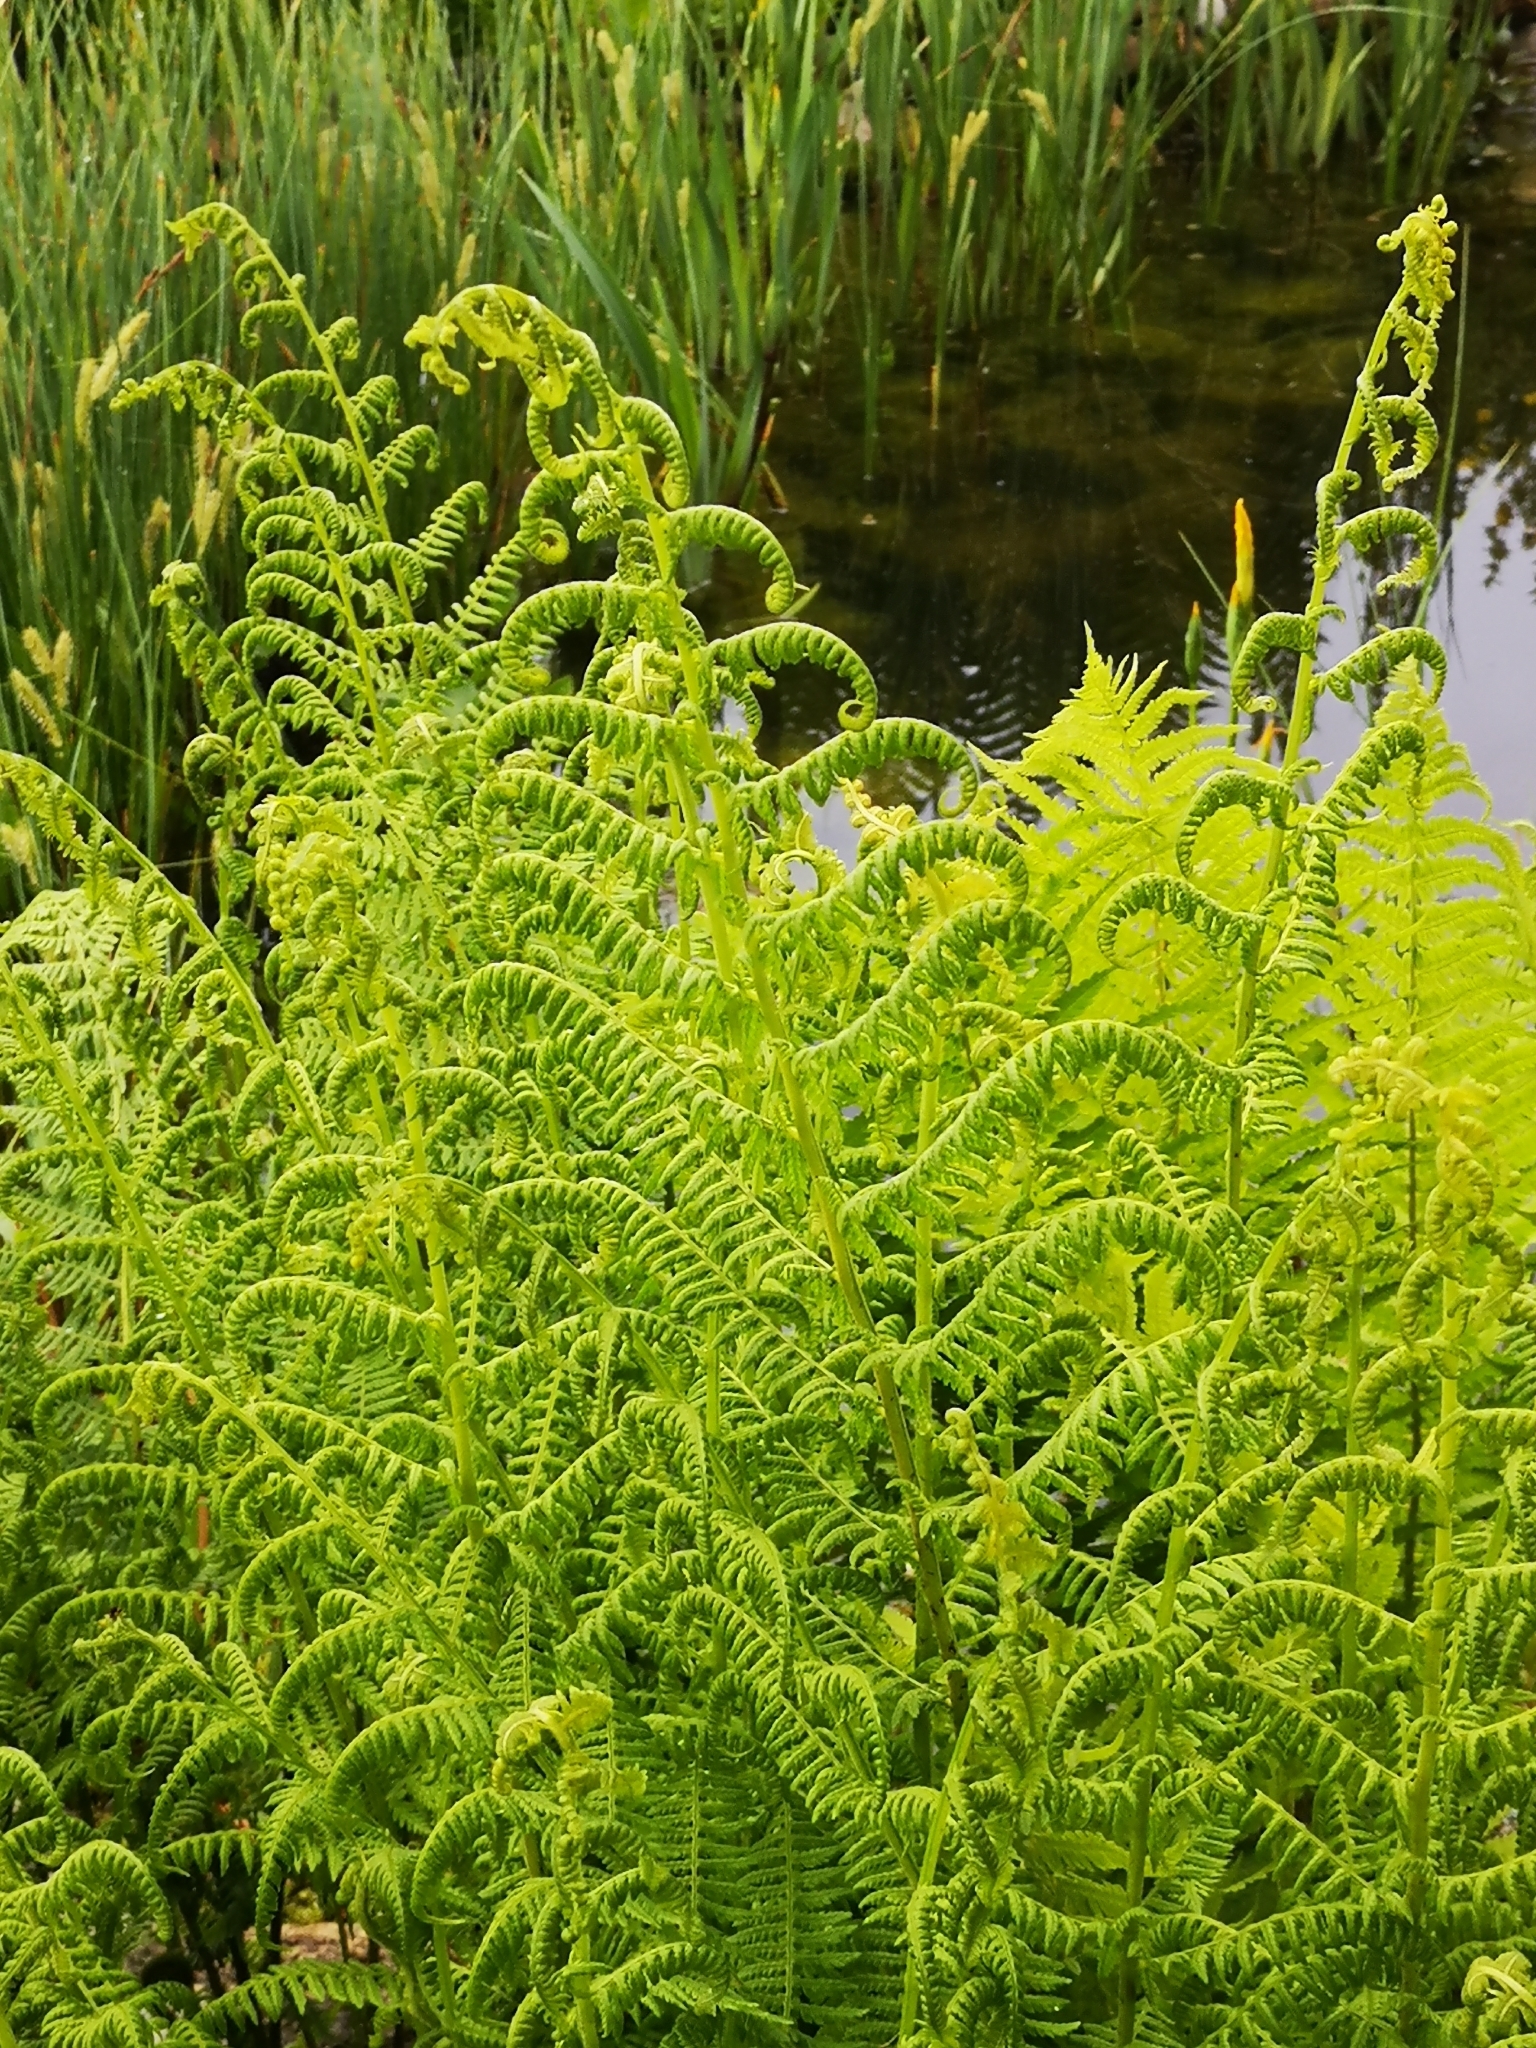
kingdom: Plantae
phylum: Tracheophyta
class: Polypodiopsida
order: Polypodiales
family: Athyriaceae
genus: Athyrium
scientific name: Athyrium filix-femina
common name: Lady fern
